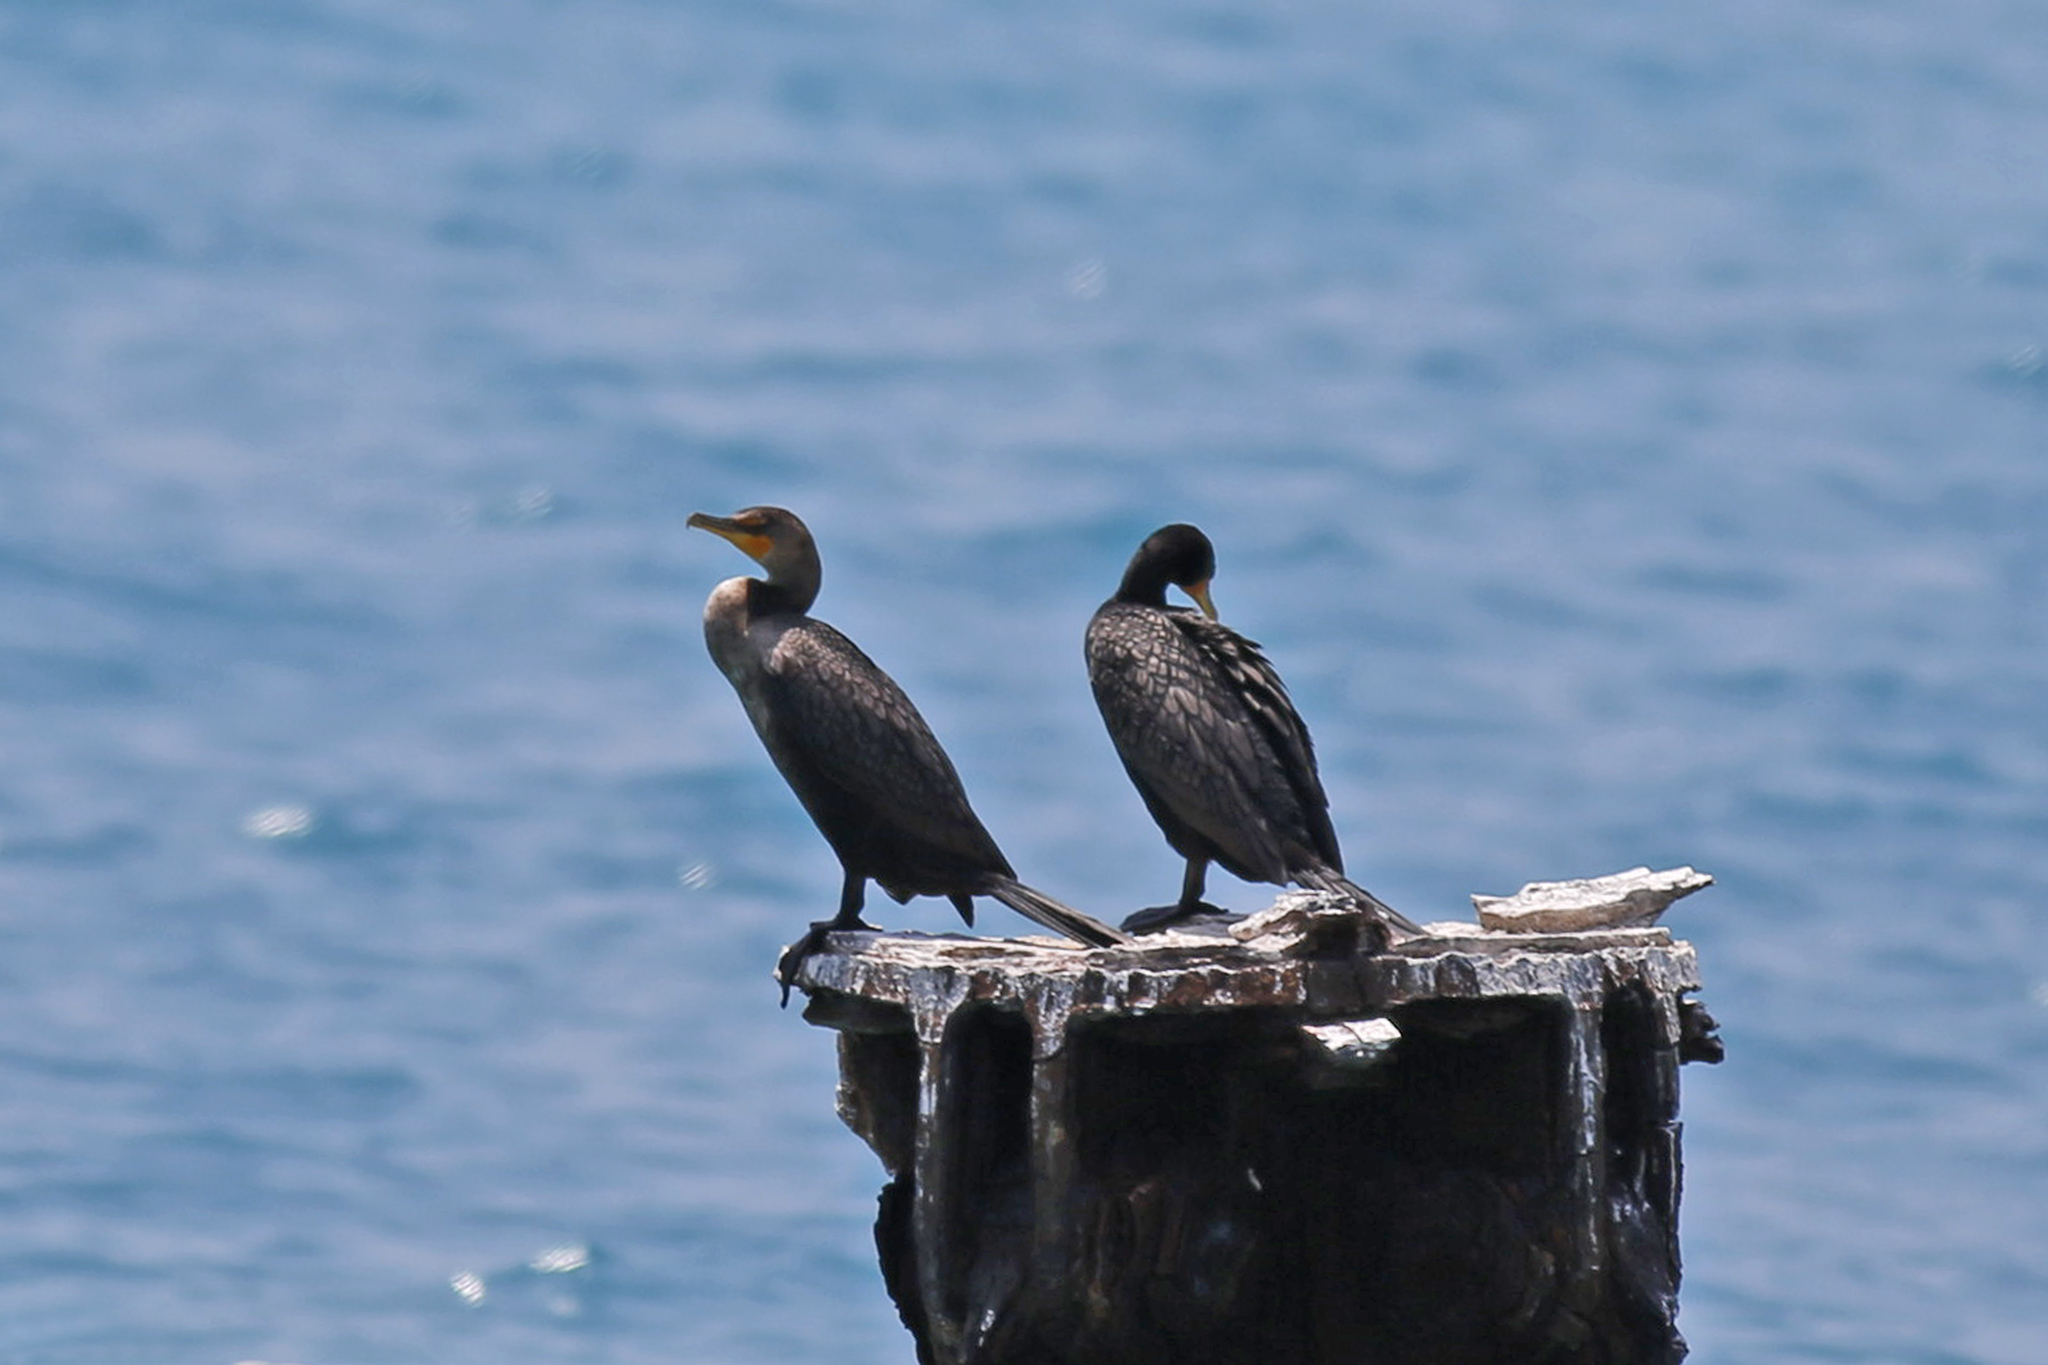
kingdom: Animalia
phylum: Chordata
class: Aves
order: Suliformes
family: Phalacrocoracidae
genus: Phalacrocorax
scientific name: Phalacrocorax auritus
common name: Double-crested cormorant
